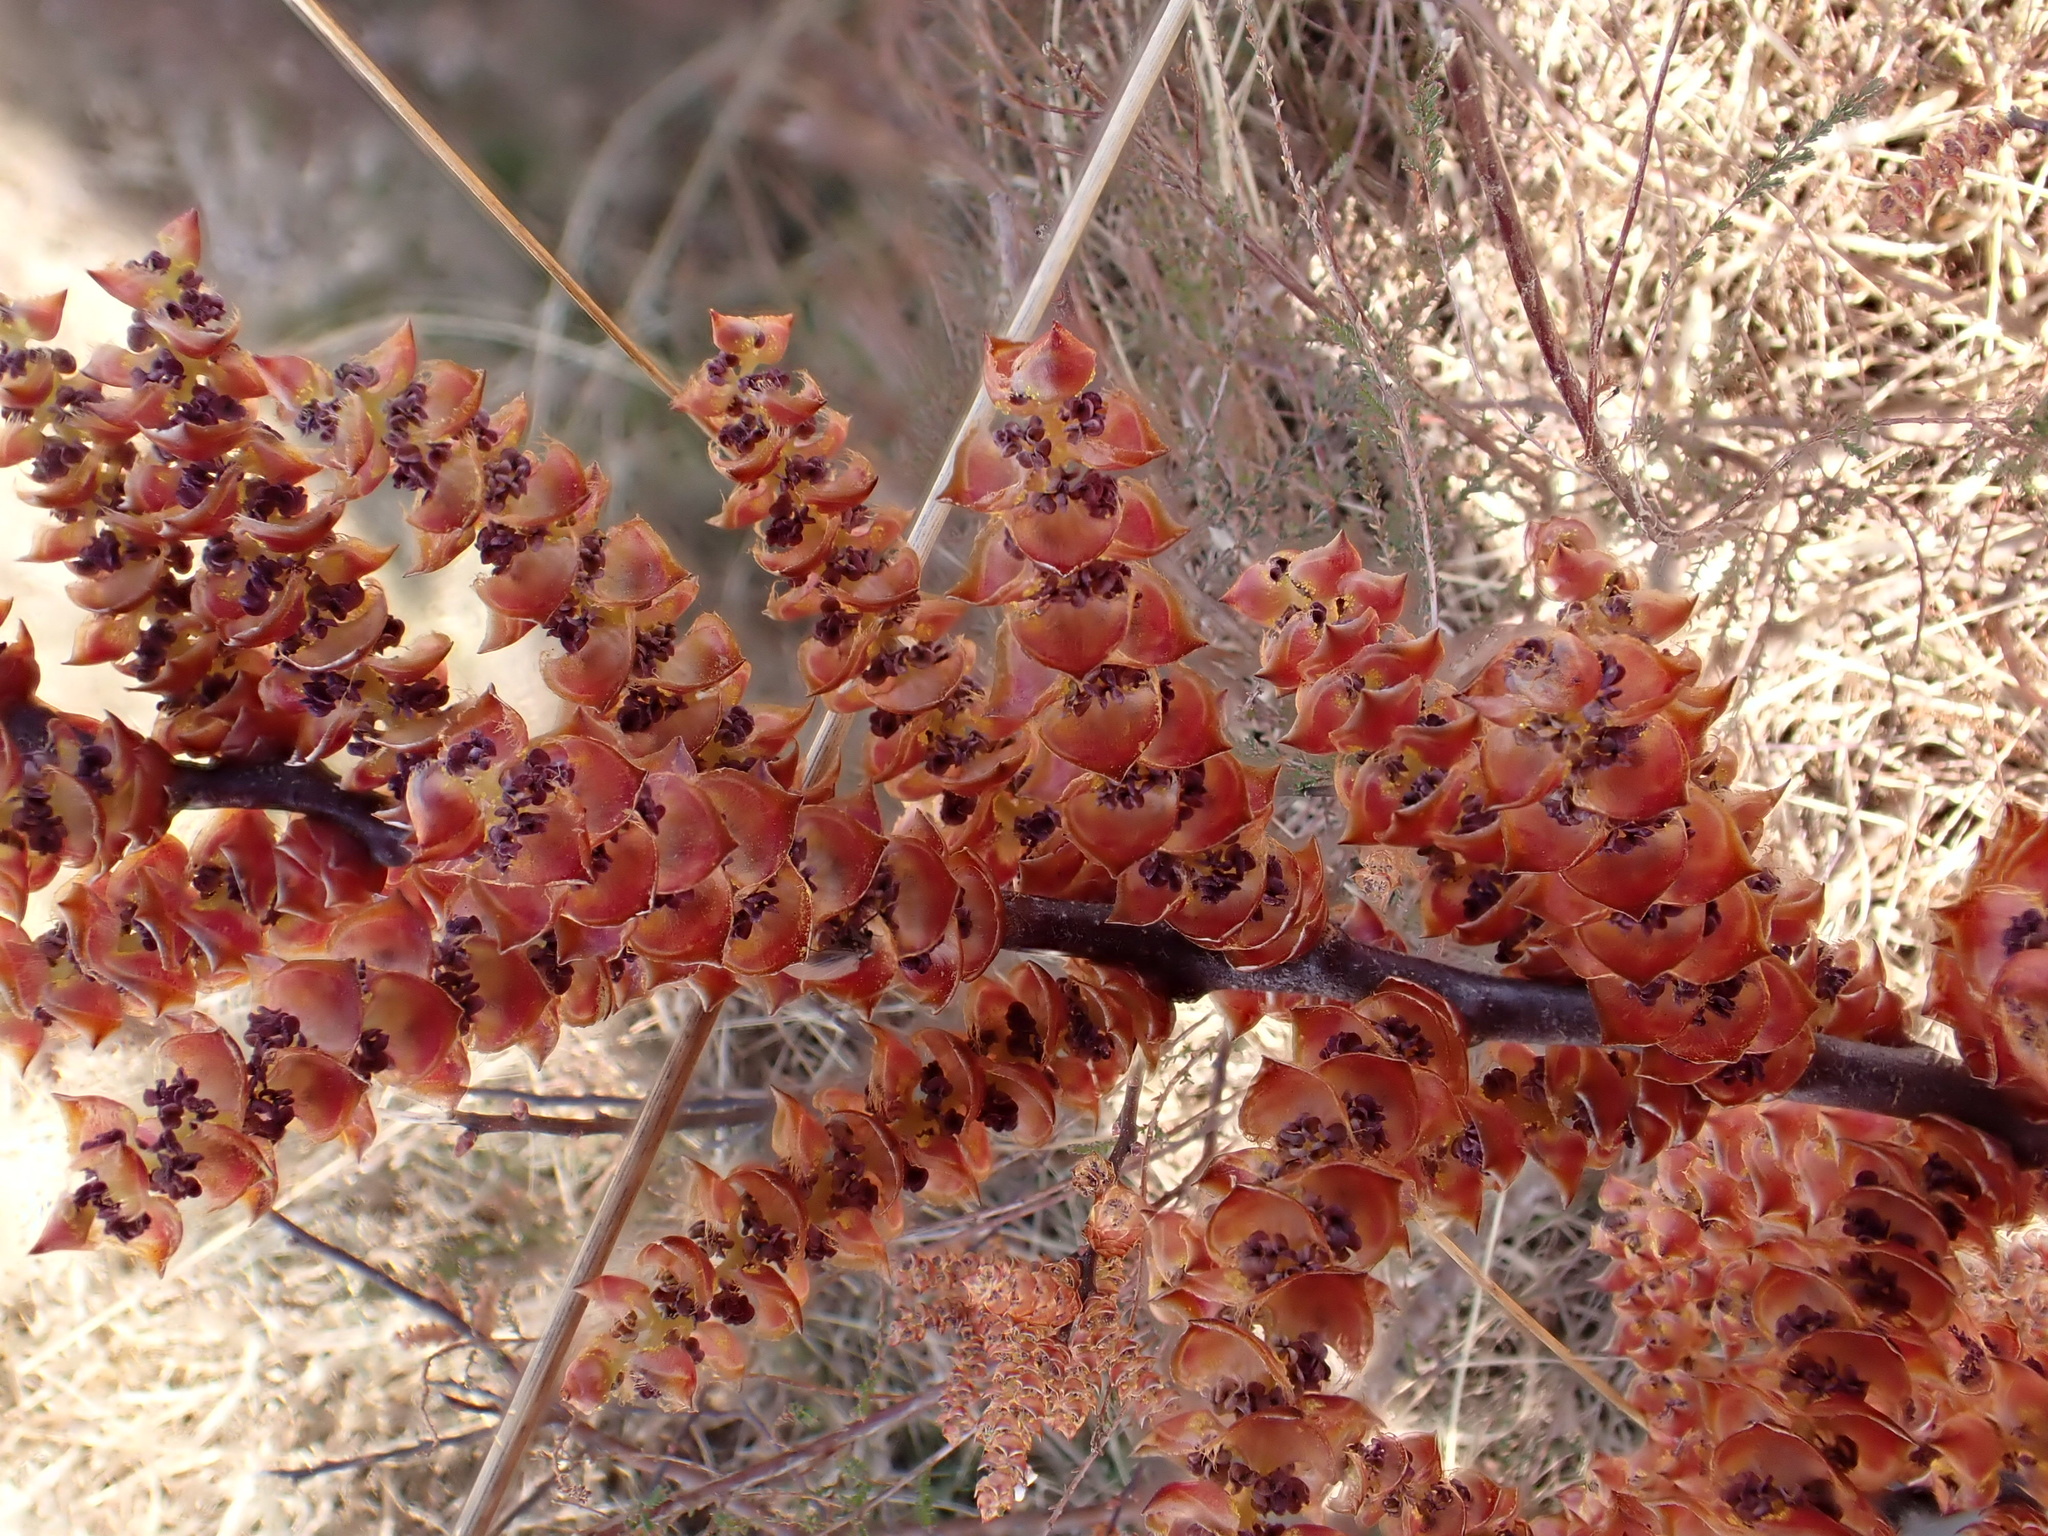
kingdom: Plantae
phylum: Tracheophyta
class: Magnoliopsida
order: Fagales
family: Myricaceae
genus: Myrica
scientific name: Myrica gale
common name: Sweet gale
